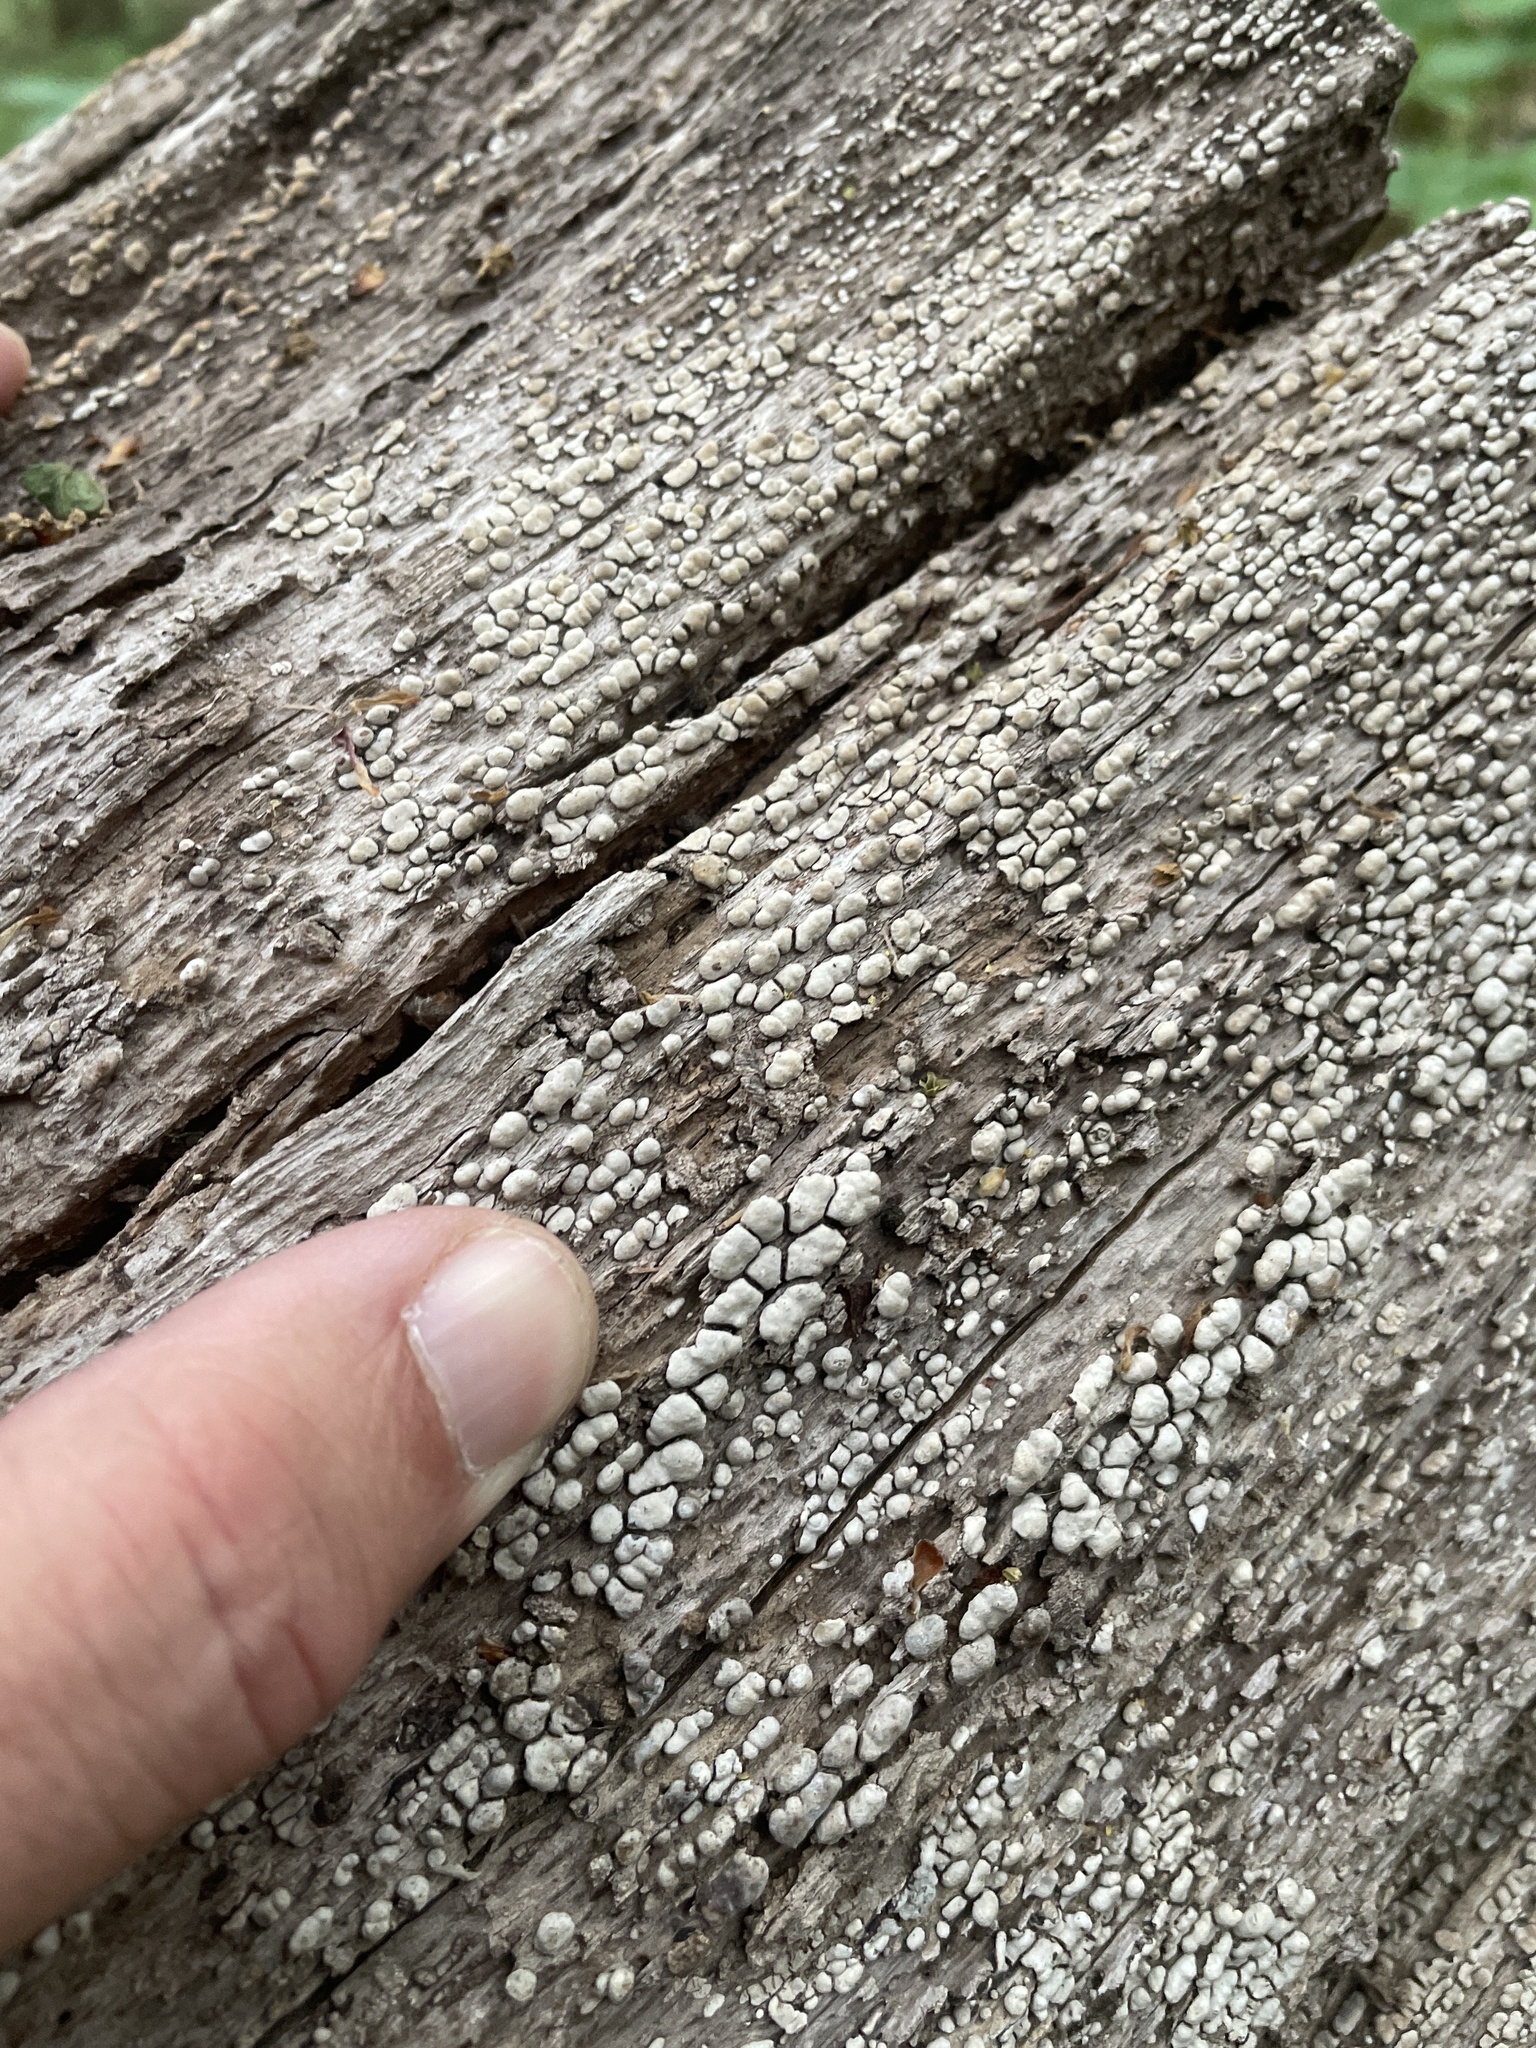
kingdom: Fungi
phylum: Basidiomycota
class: Agaricomycetes
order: Russulales
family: Stereaceae
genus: Xylobolus
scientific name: Xylobolus frustulatus
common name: Ceramic parchment
